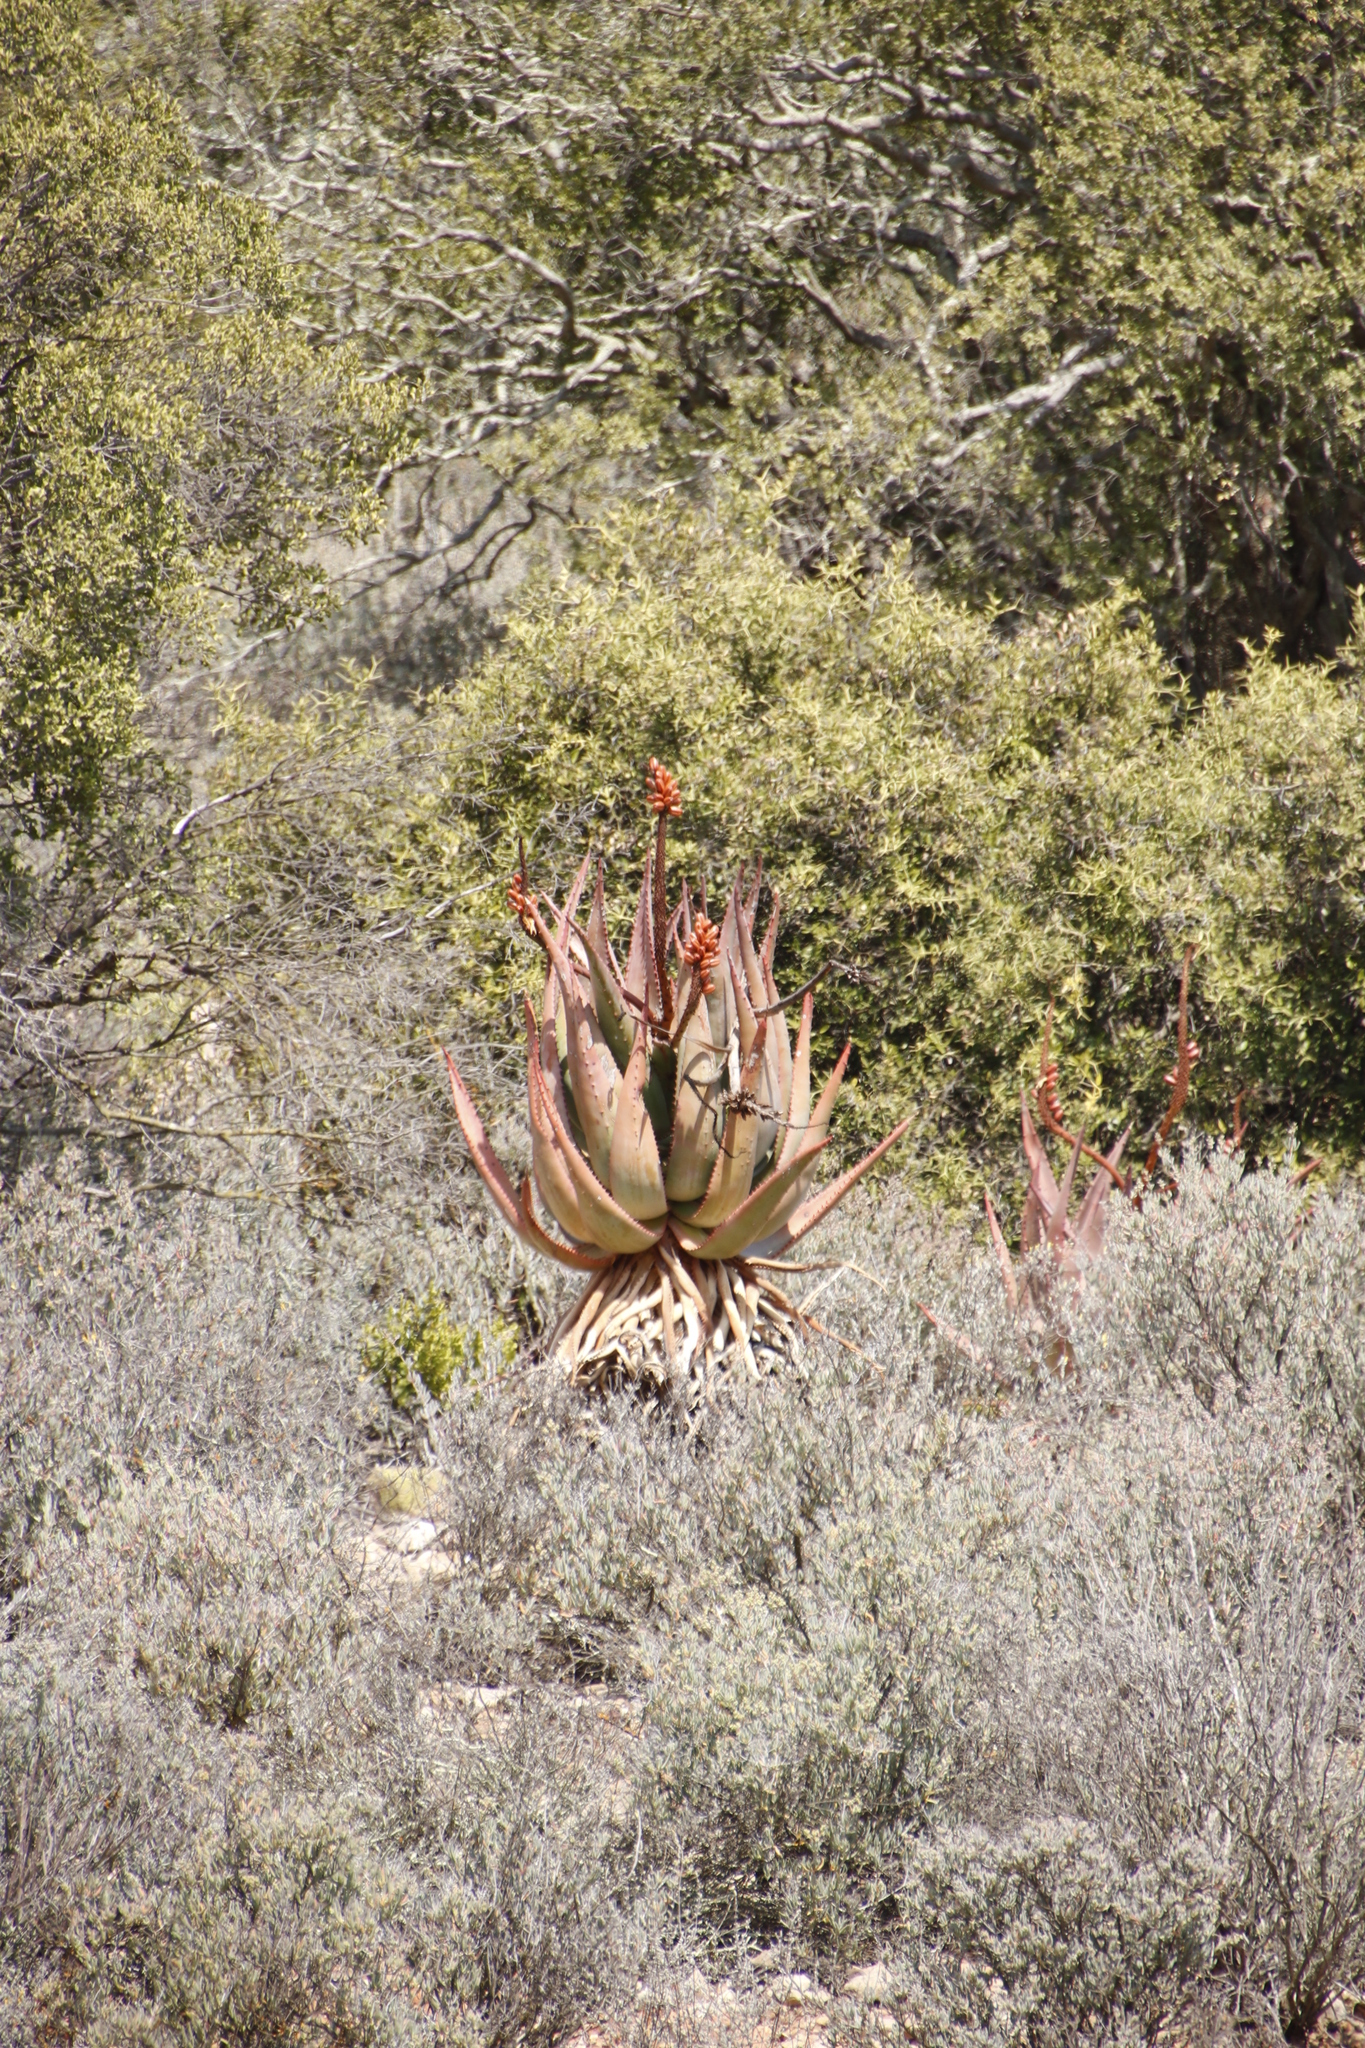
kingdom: Plantae
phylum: Tracheophyta
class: Liliopsida
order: Asparagales
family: Asphodelaceae
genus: Aloe
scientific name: Aloe ferox
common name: Bitter aloe
